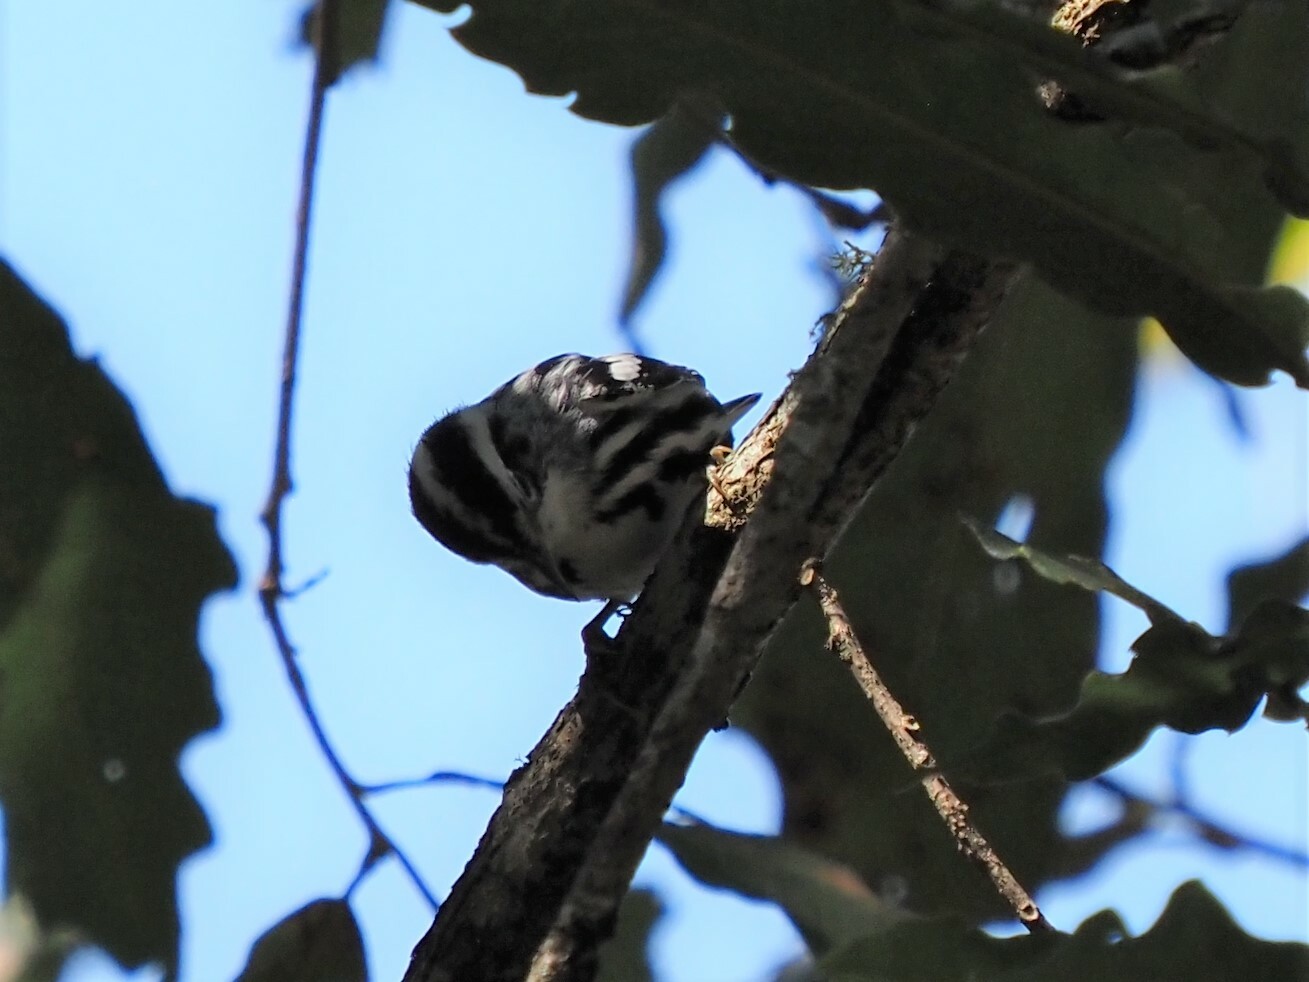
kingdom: Animalia
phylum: Chordata
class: Aves
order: Passeriformes
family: Parulidae
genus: Mniotilta
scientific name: Mniotilta varia
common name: Black-and-white warbler
